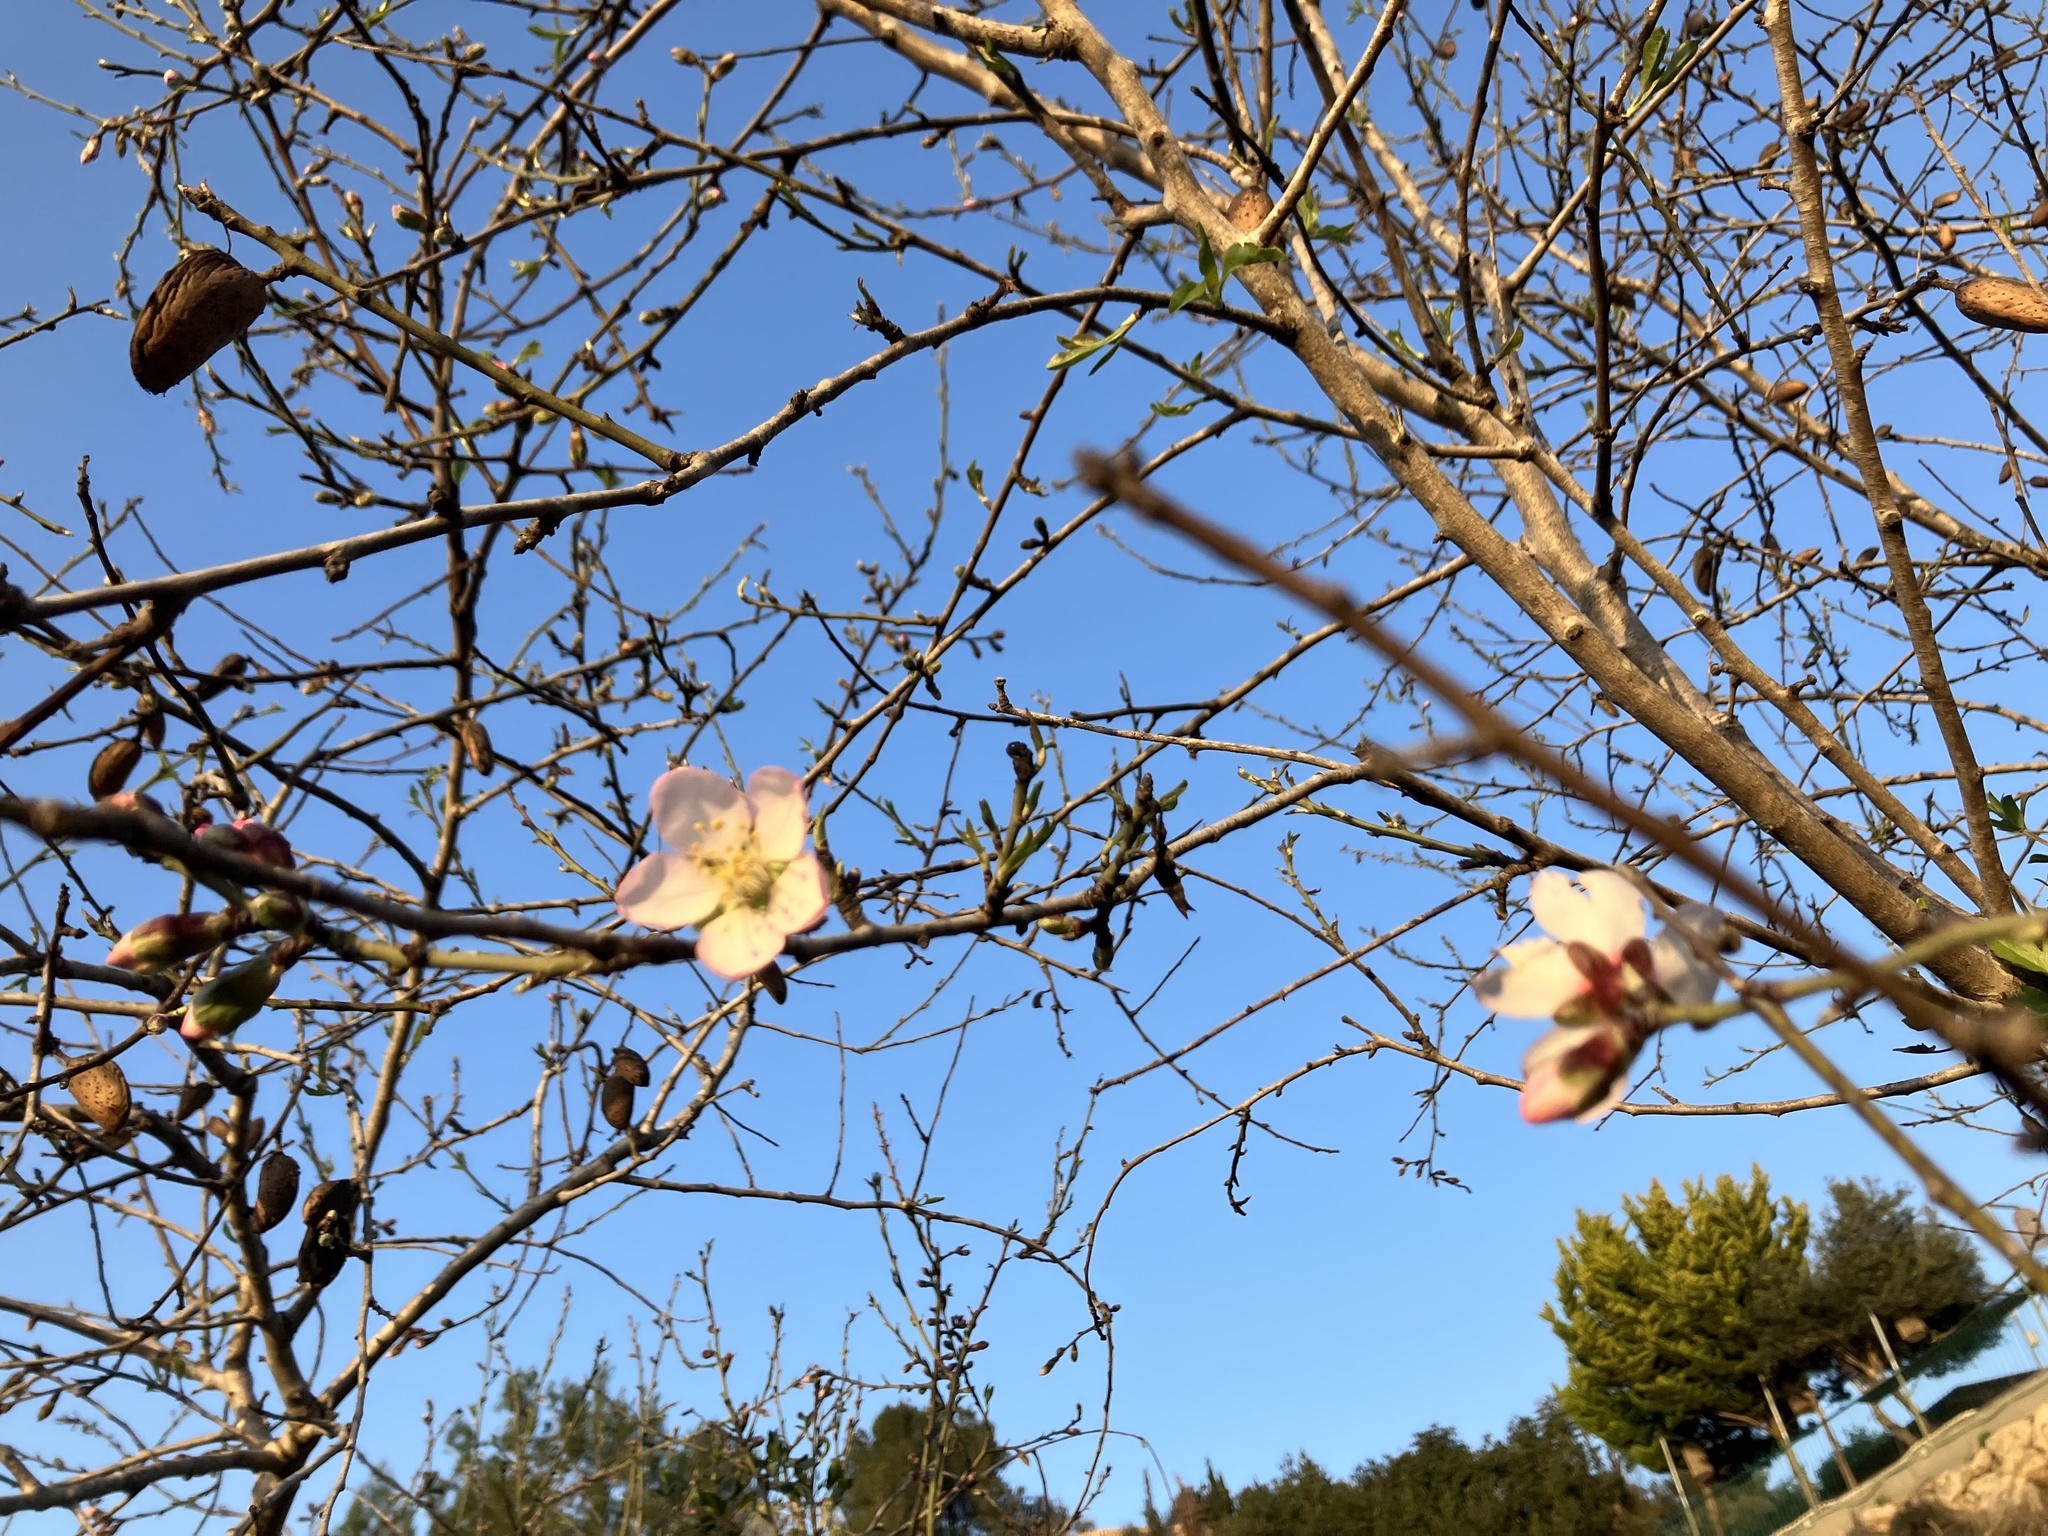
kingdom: Plantae
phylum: Tracheophyta
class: Magnoliopsida
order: Rosales
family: Rosaceae
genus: Prunus
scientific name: Prunus amygdalus
